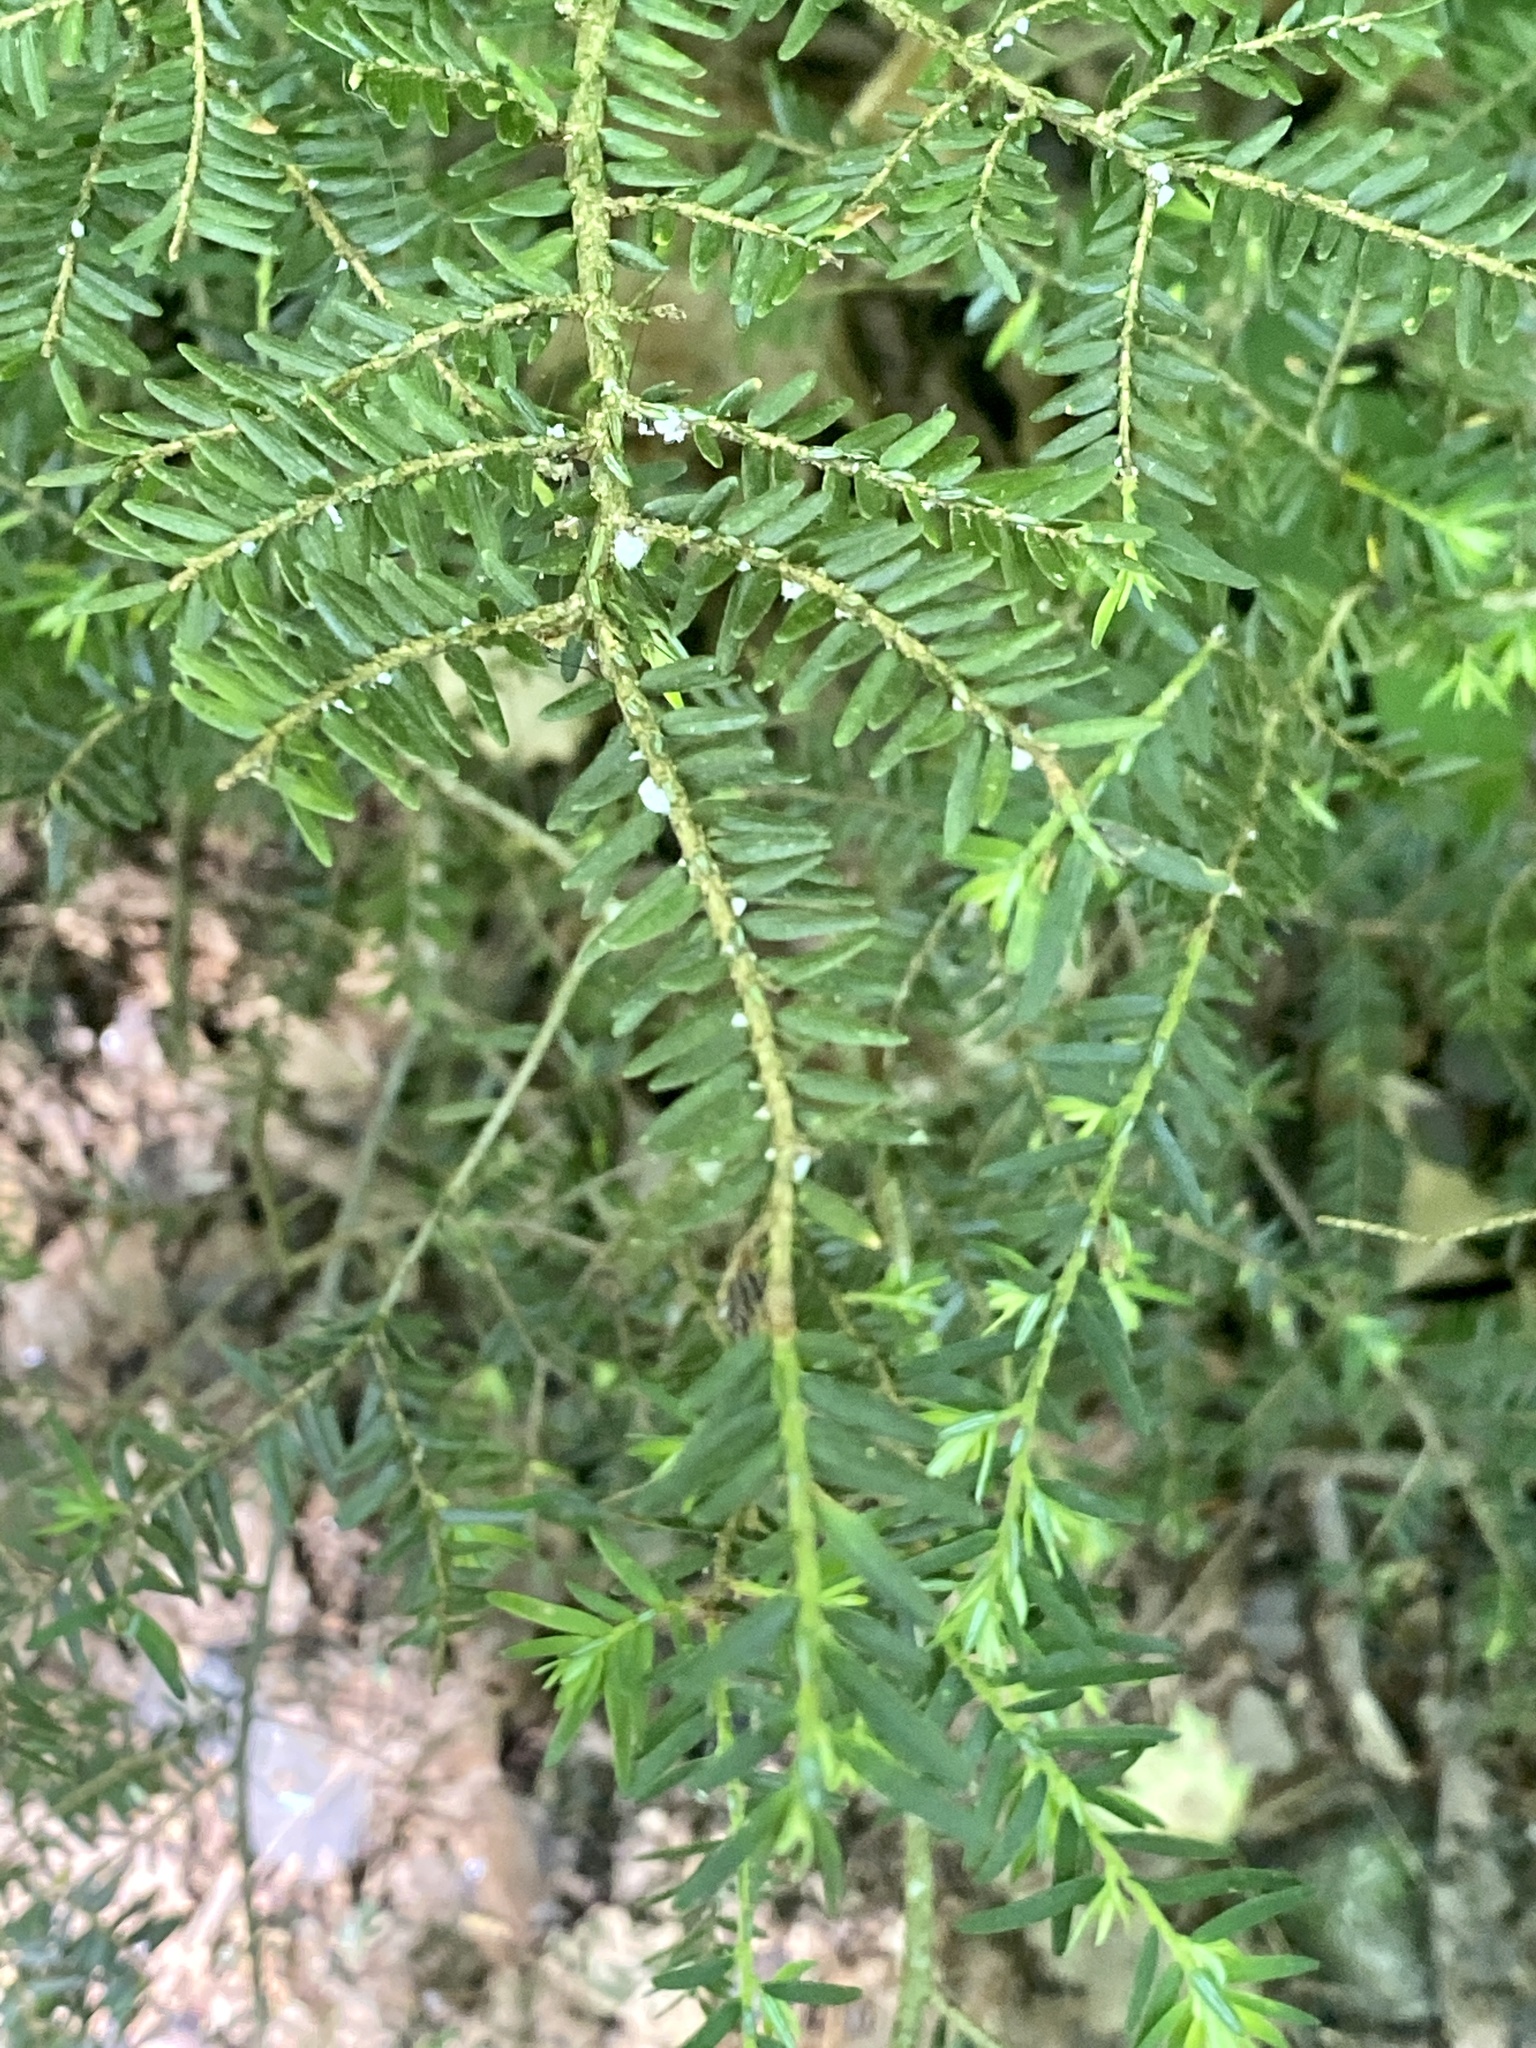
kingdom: Plantae
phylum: Tracheophyta
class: Pinopsida
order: Pinales
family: Pinaceae
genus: Tsuga
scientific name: Tsuga canadensis
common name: Eastern hemlock
